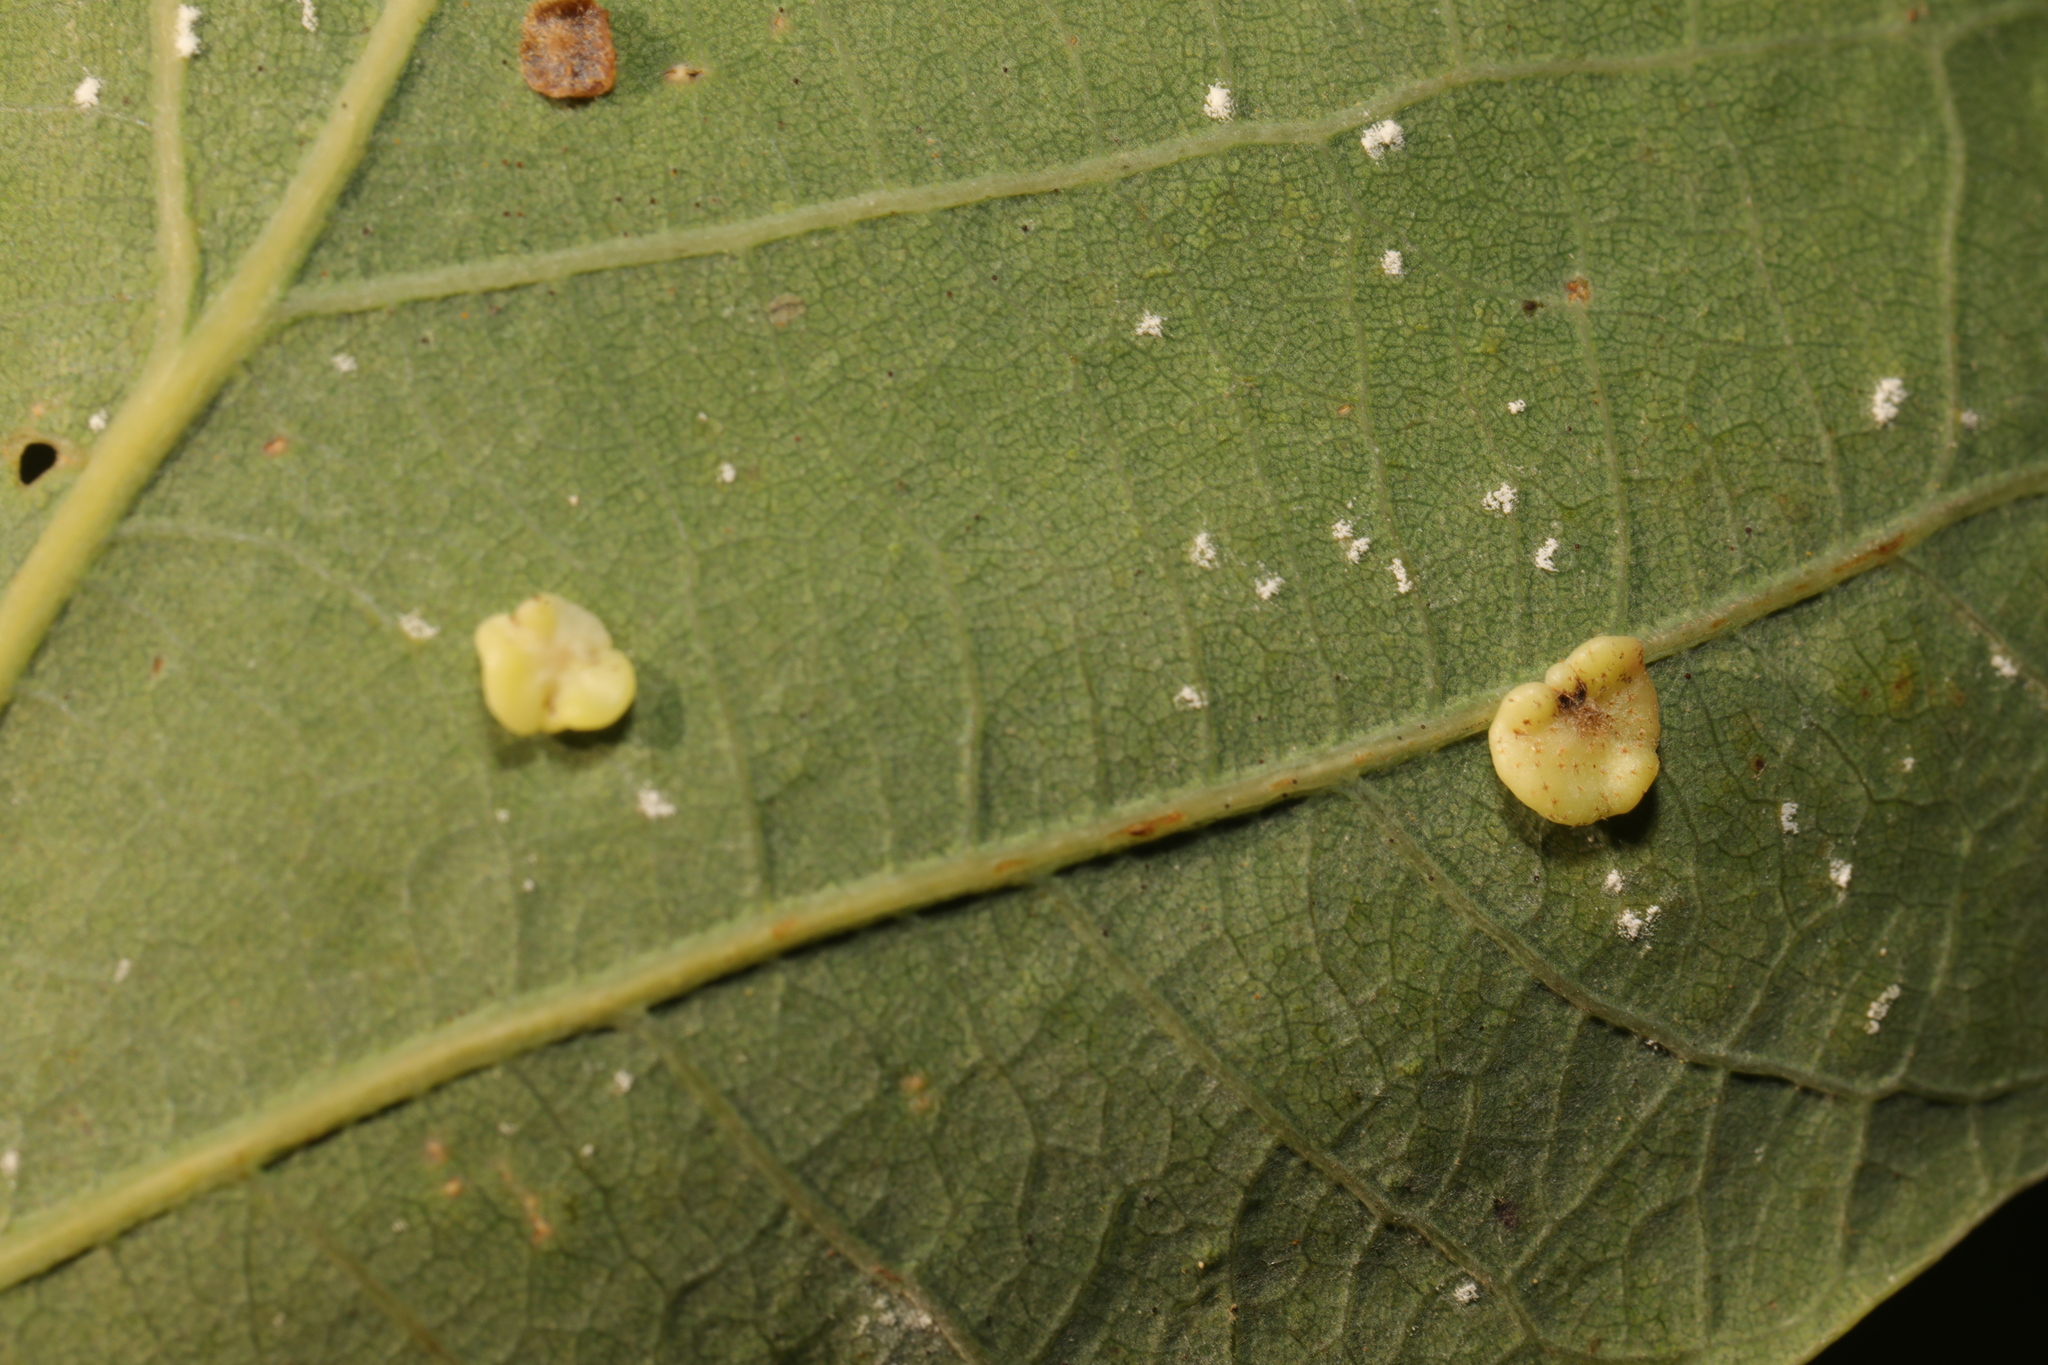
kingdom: Animalia
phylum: Arthropoda
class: Insecta
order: Hymenoptera
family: Cynipidae
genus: Neuroterus
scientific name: Neuroterus albipes
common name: Smooth spangle gall
